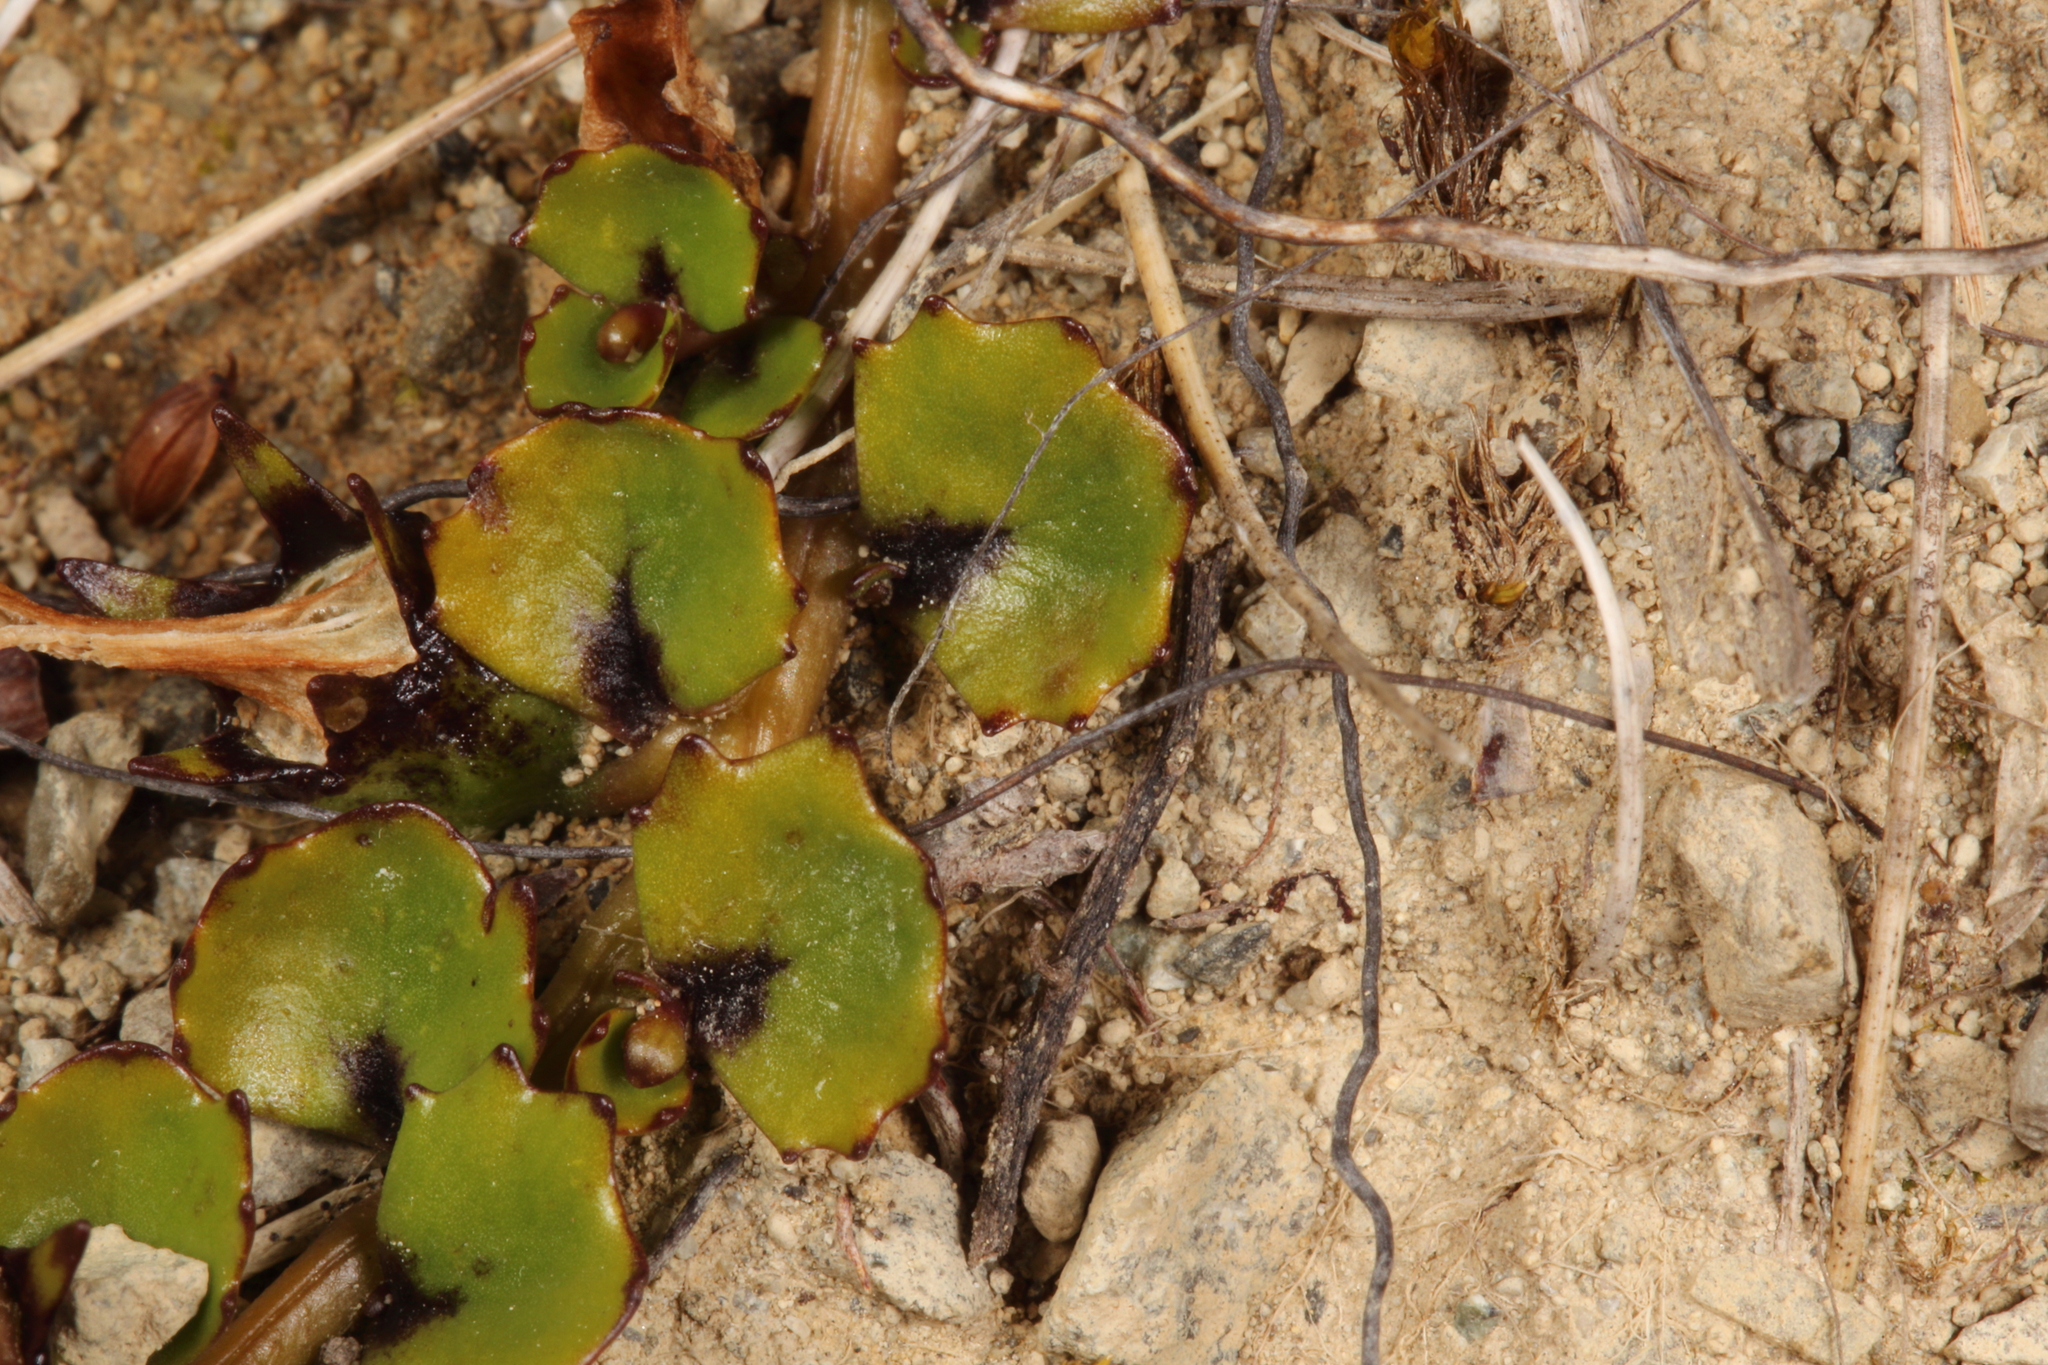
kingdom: Plantae
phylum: Tracheophyta
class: Magnoliopsida
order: Asterales
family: Campanulaceae
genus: Lobelia
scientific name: Lobelia macrodon
